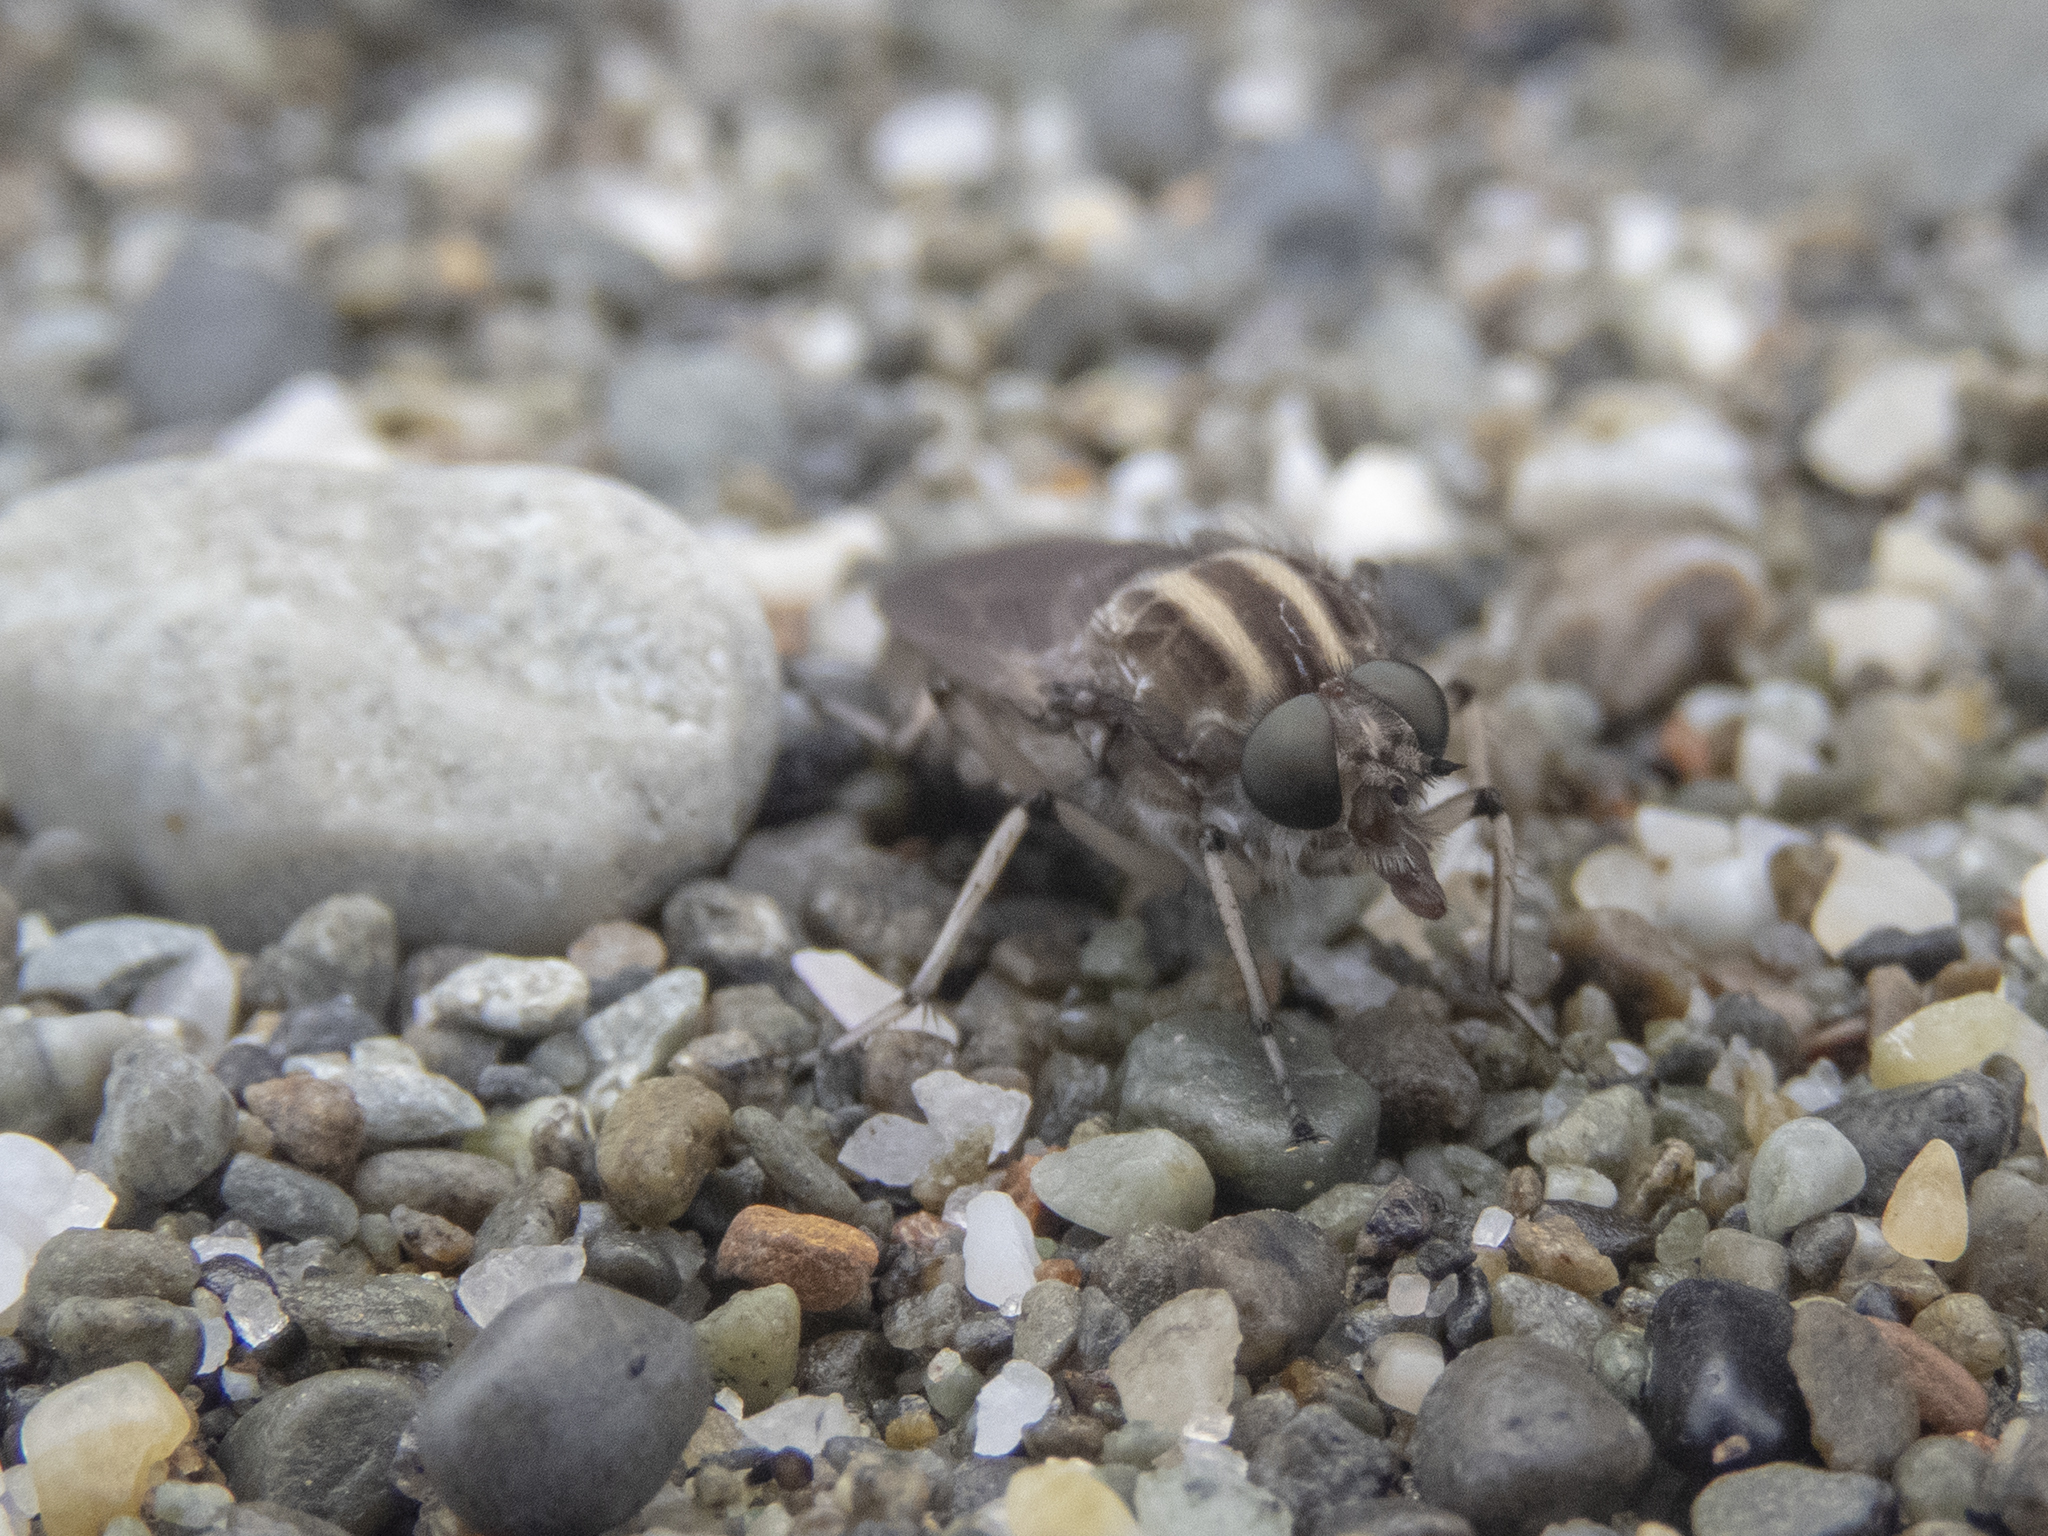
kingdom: Animalia
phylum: Arthropoda
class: Insecta
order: Diptera
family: Therevidae
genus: Megathereva
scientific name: Megathereva albopilosa
